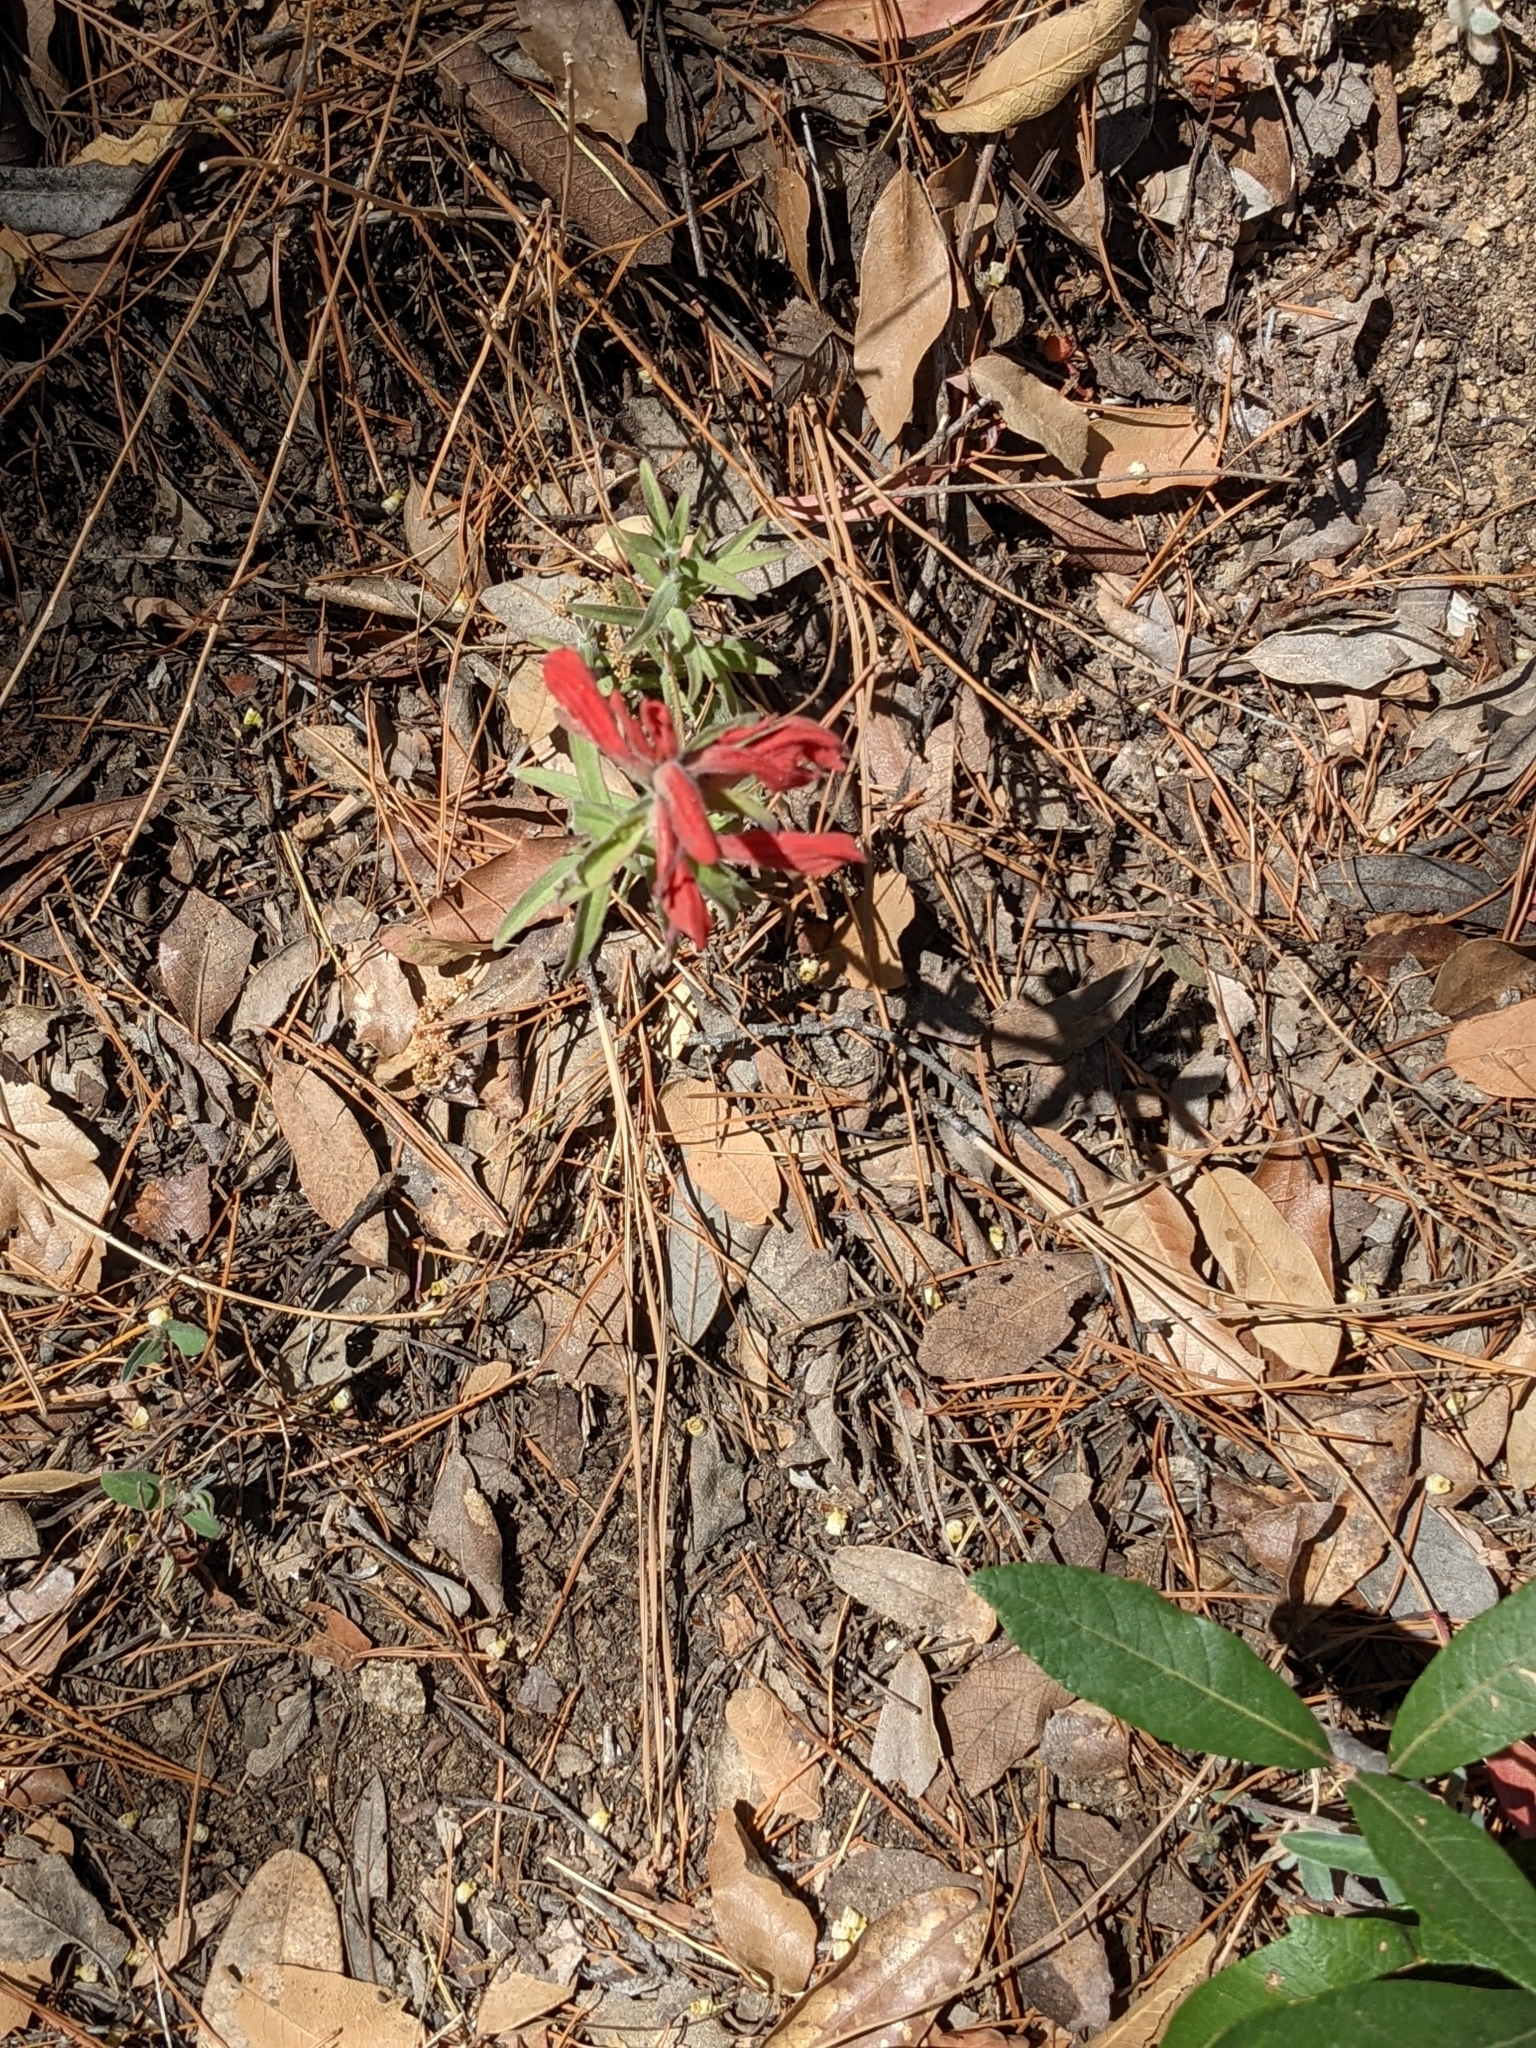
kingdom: Plantae
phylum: Tracheophyta
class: Magnoliopsida
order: Lamiales
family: Orobanchaceae
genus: Castilleja
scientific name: Castilleja tenuiflora
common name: Santa catalina indian paintbrush
